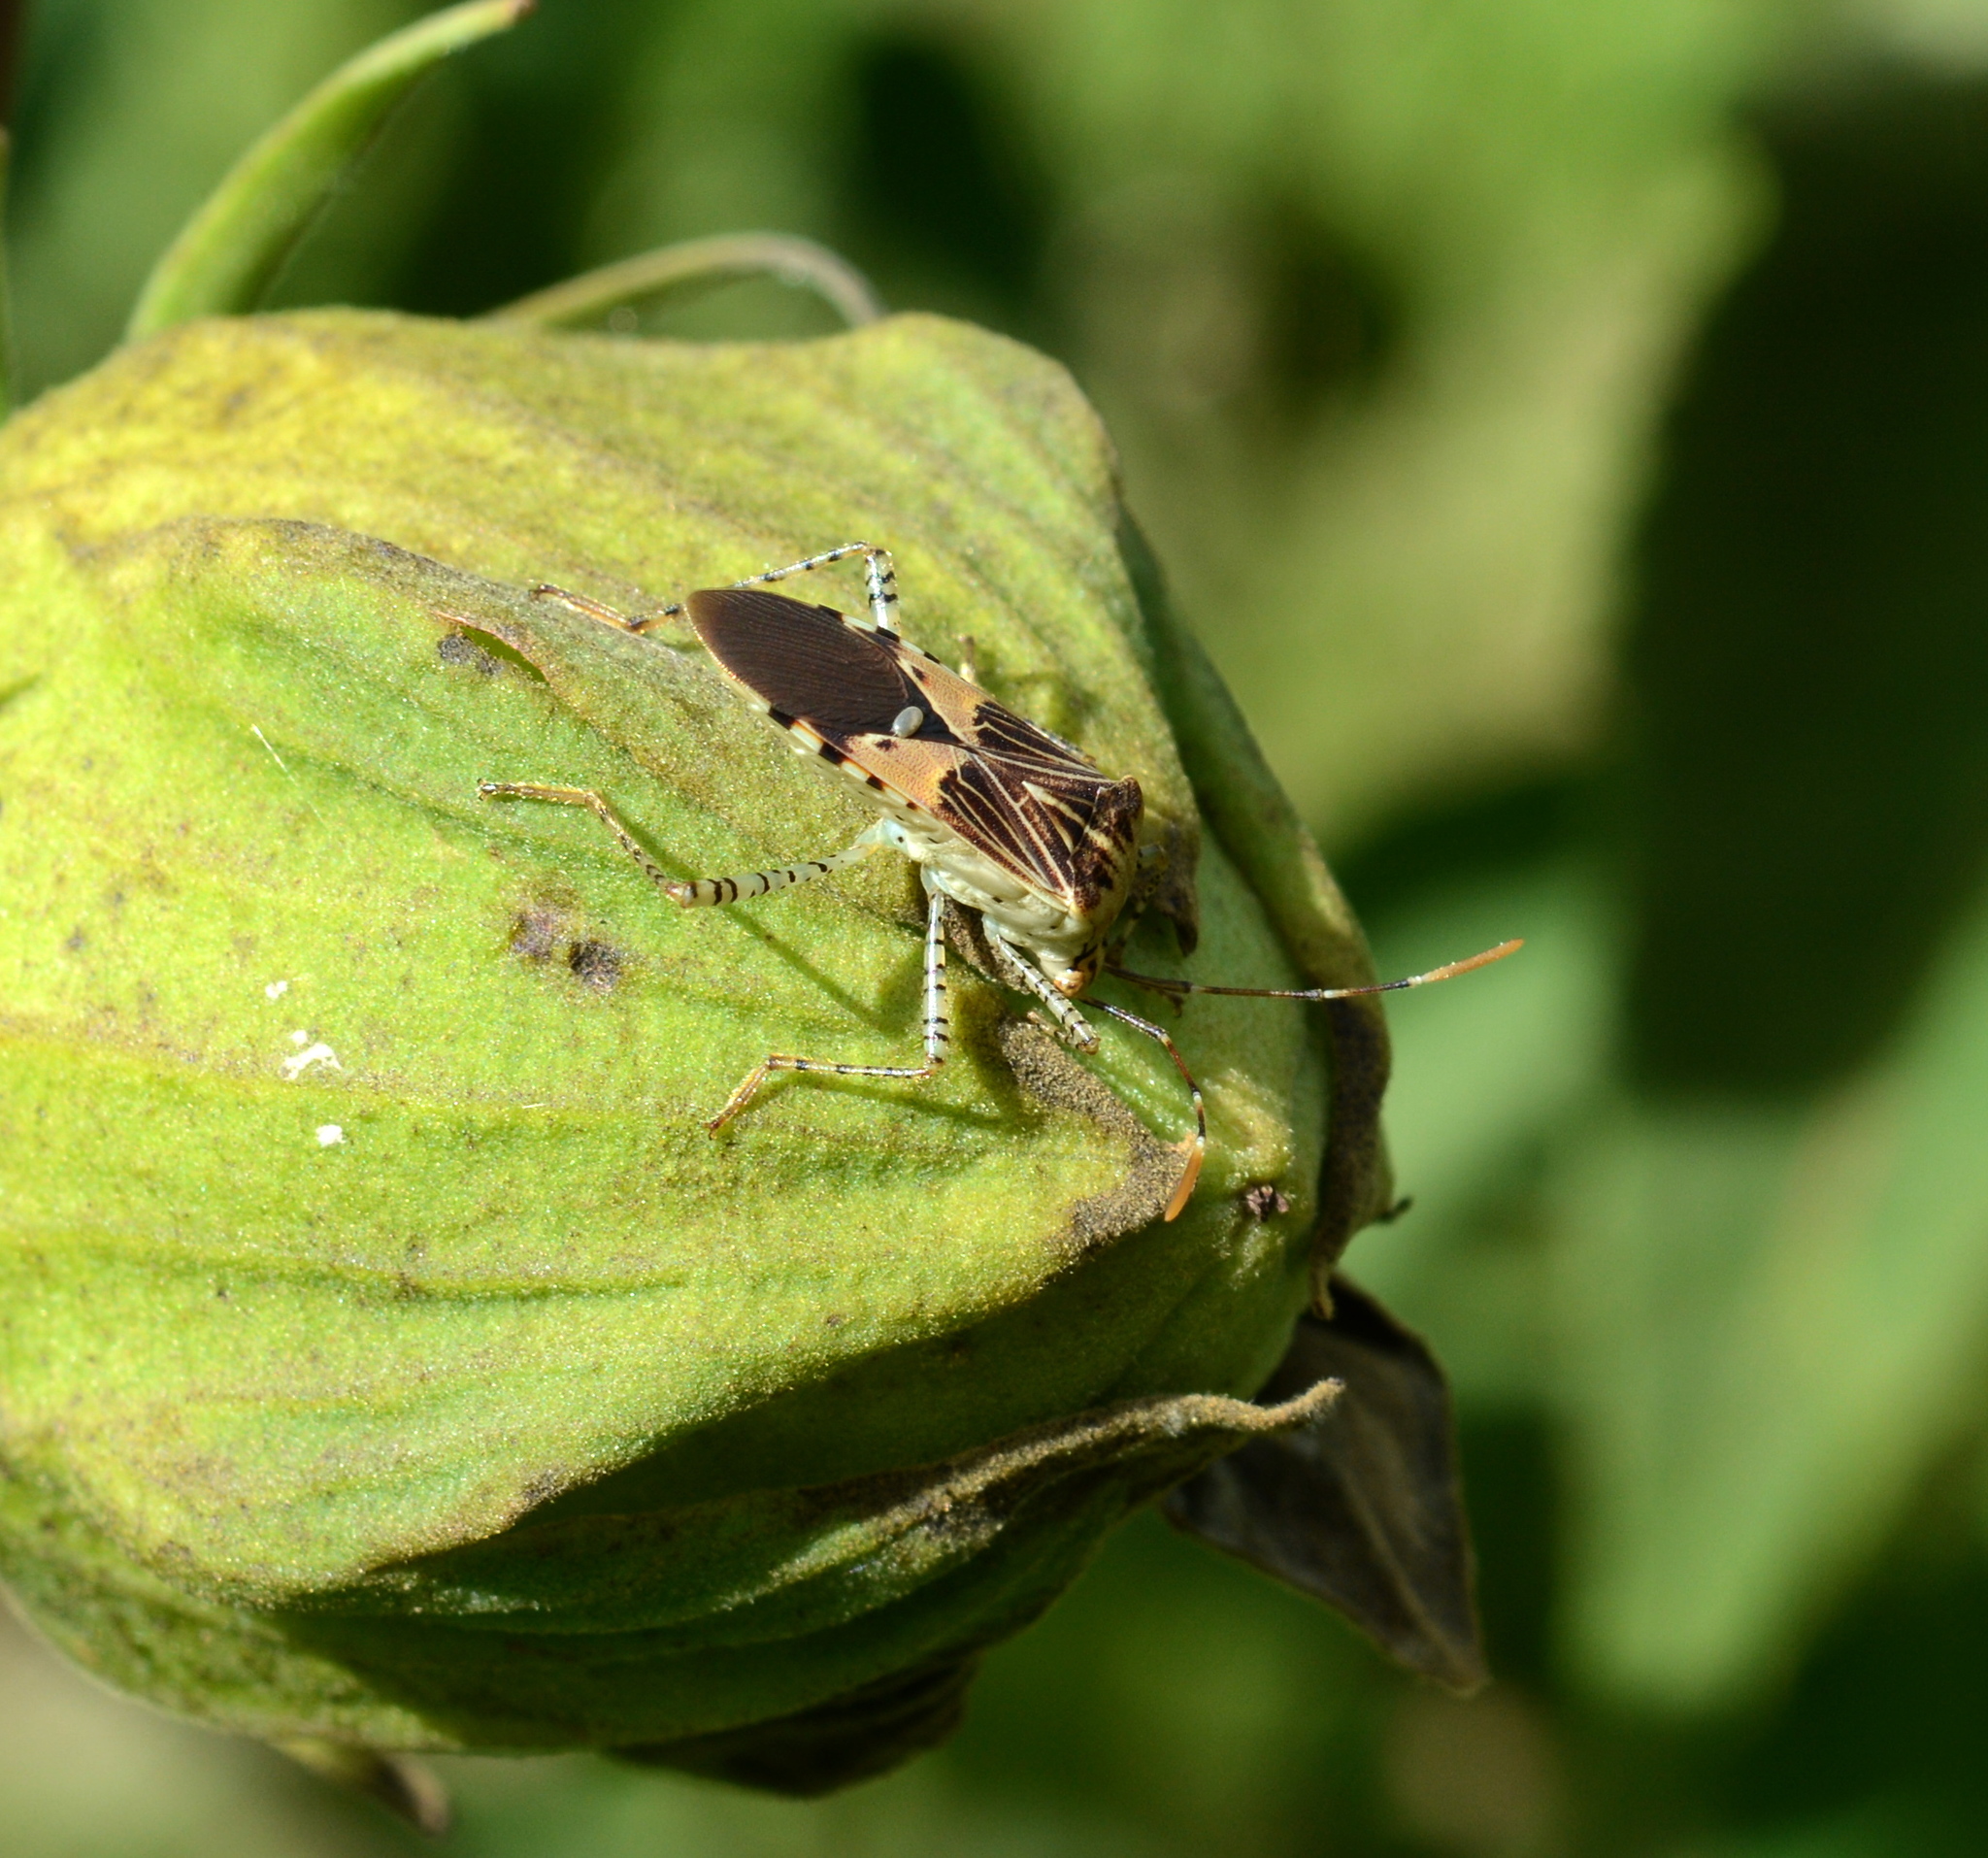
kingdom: Animalia
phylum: Arthropoda
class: Insecta
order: Hemiptera
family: Coreidae
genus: Hypselonotus
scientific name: Hypselonotus punctiventris
